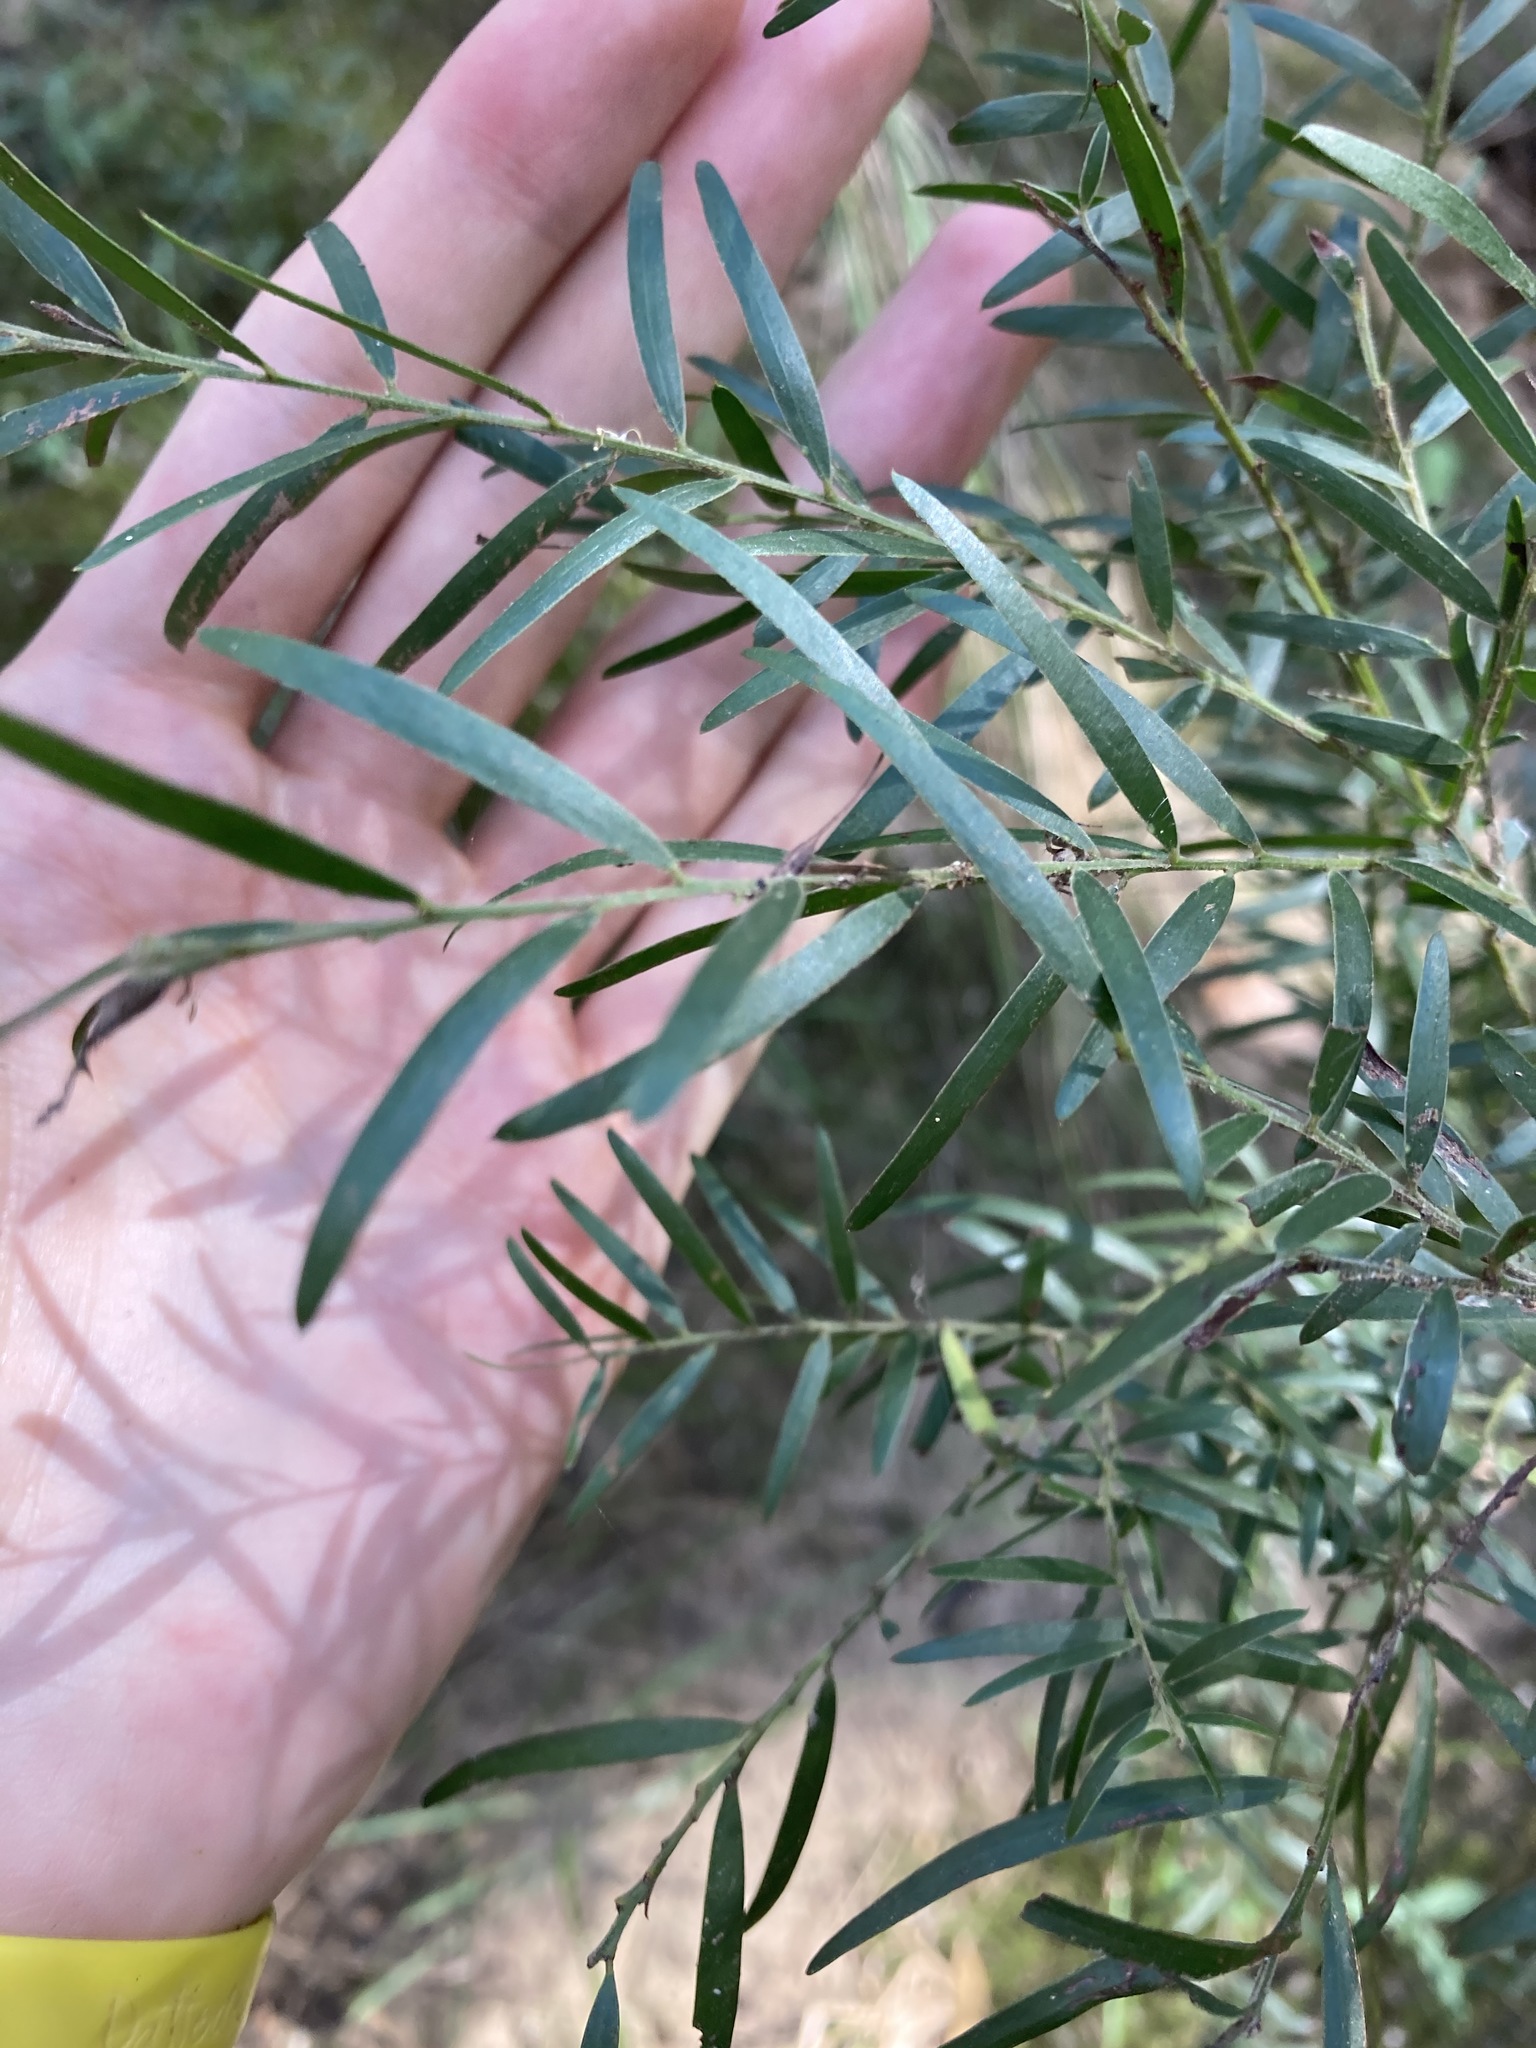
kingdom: Plantae
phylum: Tracheophyta
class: Magnoliopsida
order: Fabales
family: Fabaceae
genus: Acacia
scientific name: Acacia fimbriata
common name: Brisbane golden wattle
